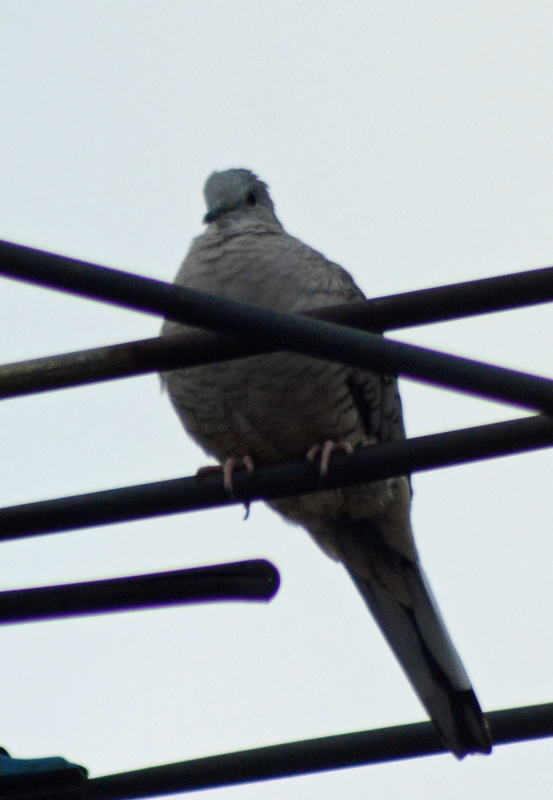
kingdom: Animalia
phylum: Chordata
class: Aves
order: Columbiformes
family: Columbidae
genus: Columbina
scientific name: Columbina inca
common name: Inca dove
